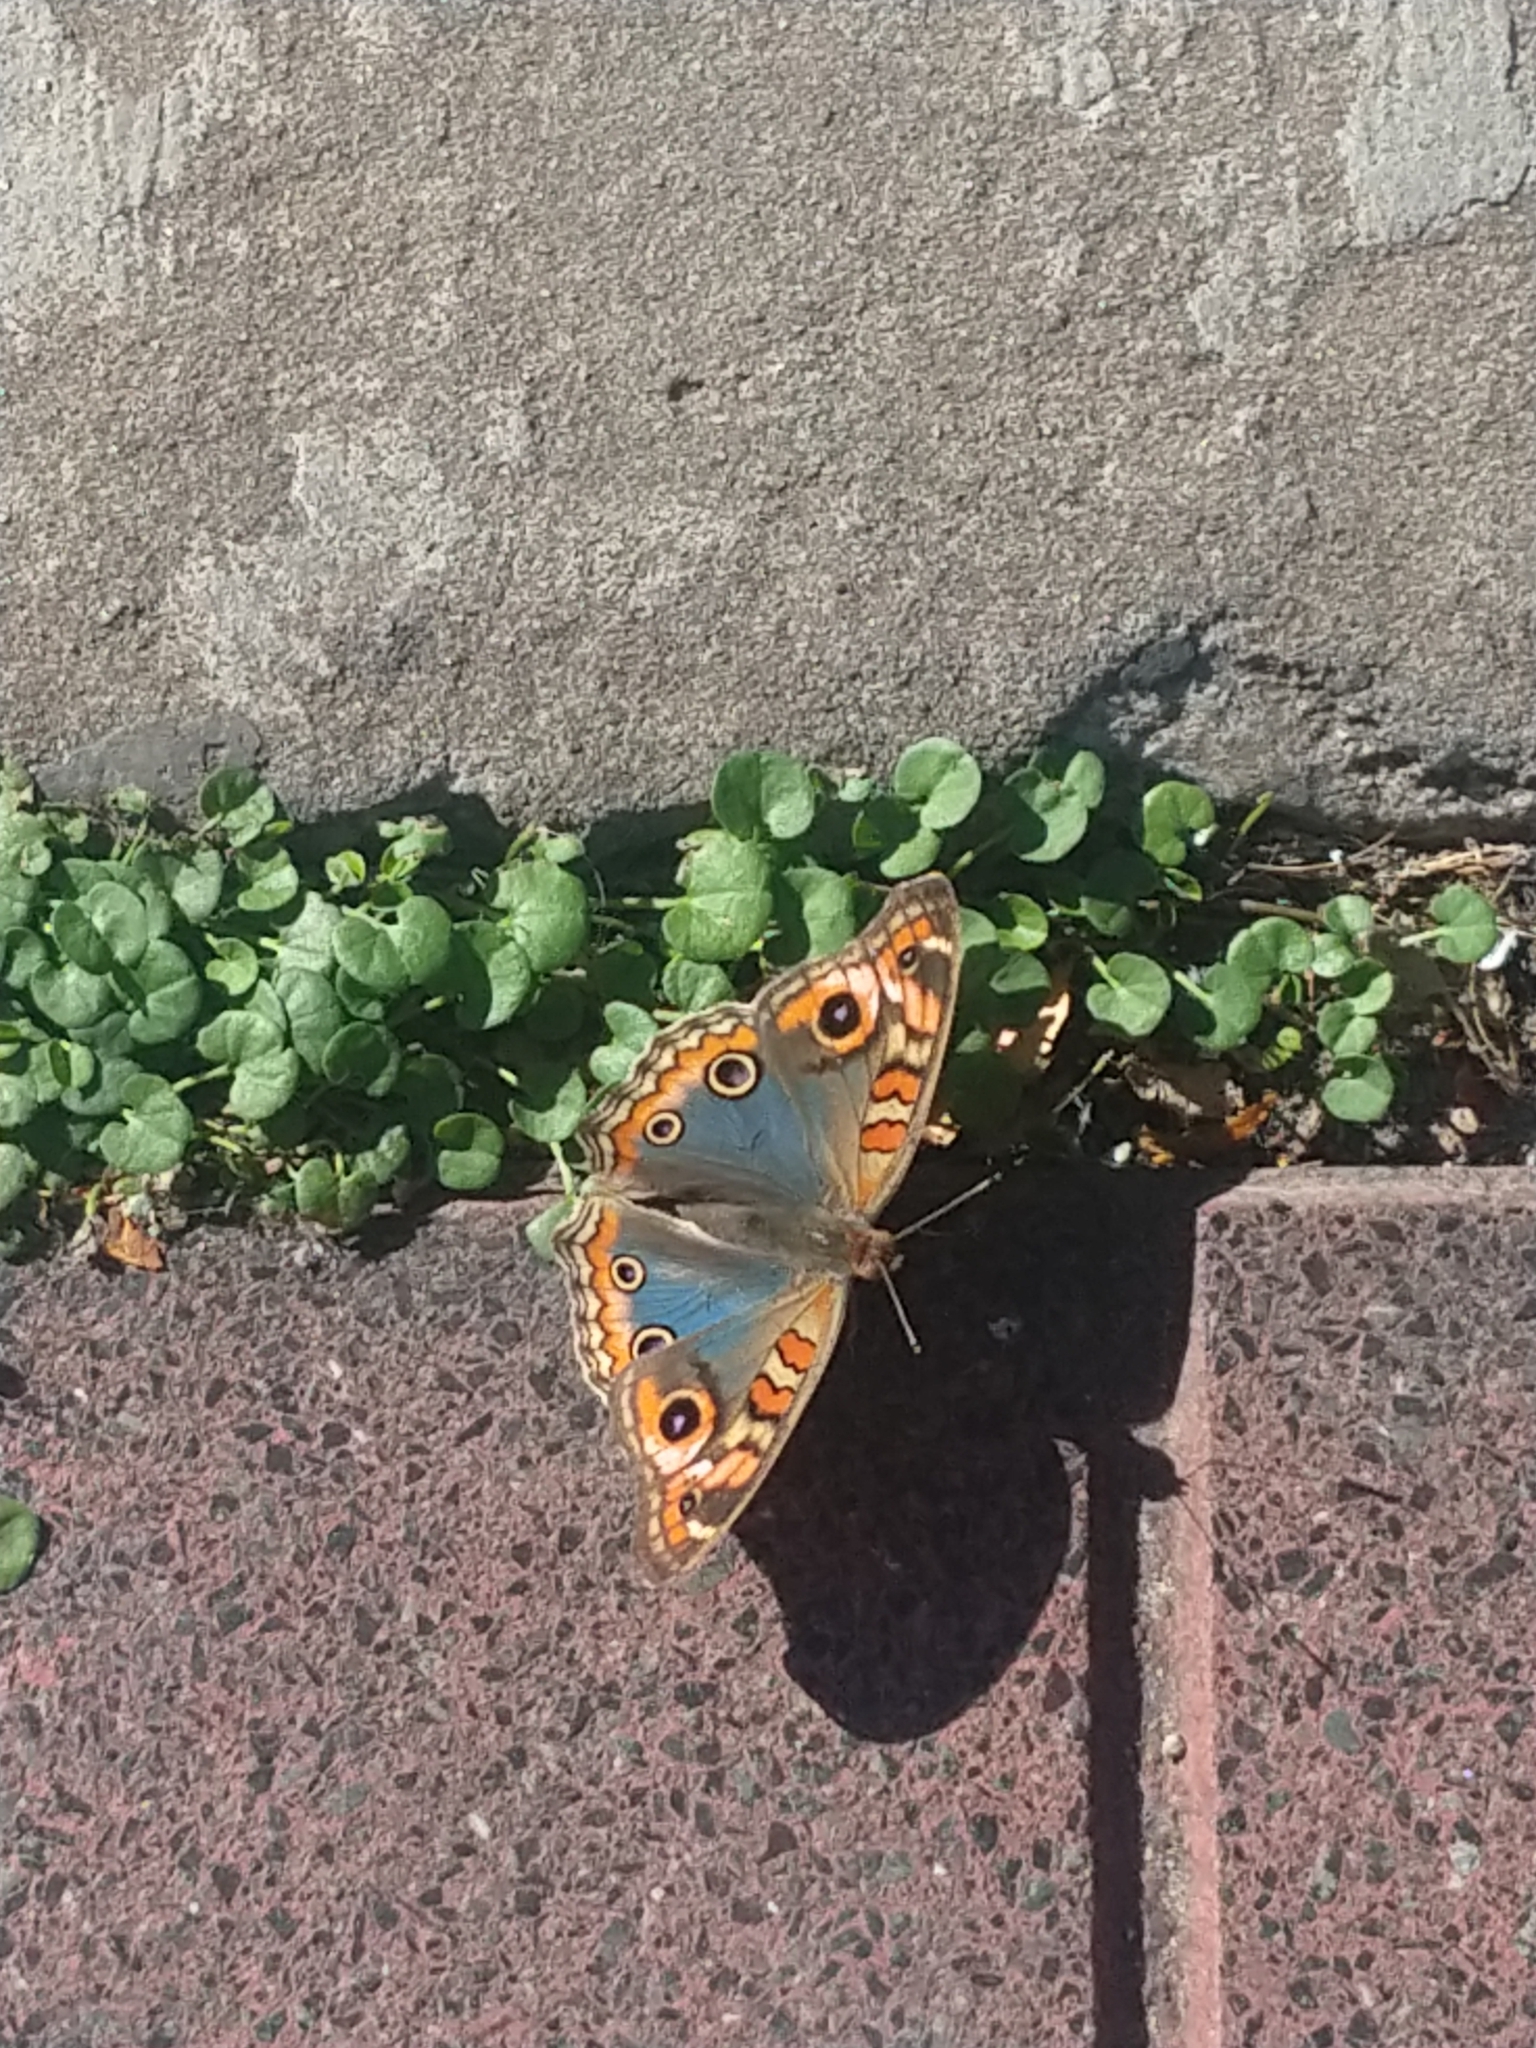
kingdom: Animalia
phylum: Arthropoda
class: Insecta
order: Lepidoptera
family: Nymphalidae
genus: Junonia
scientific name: Junonia lavinia
